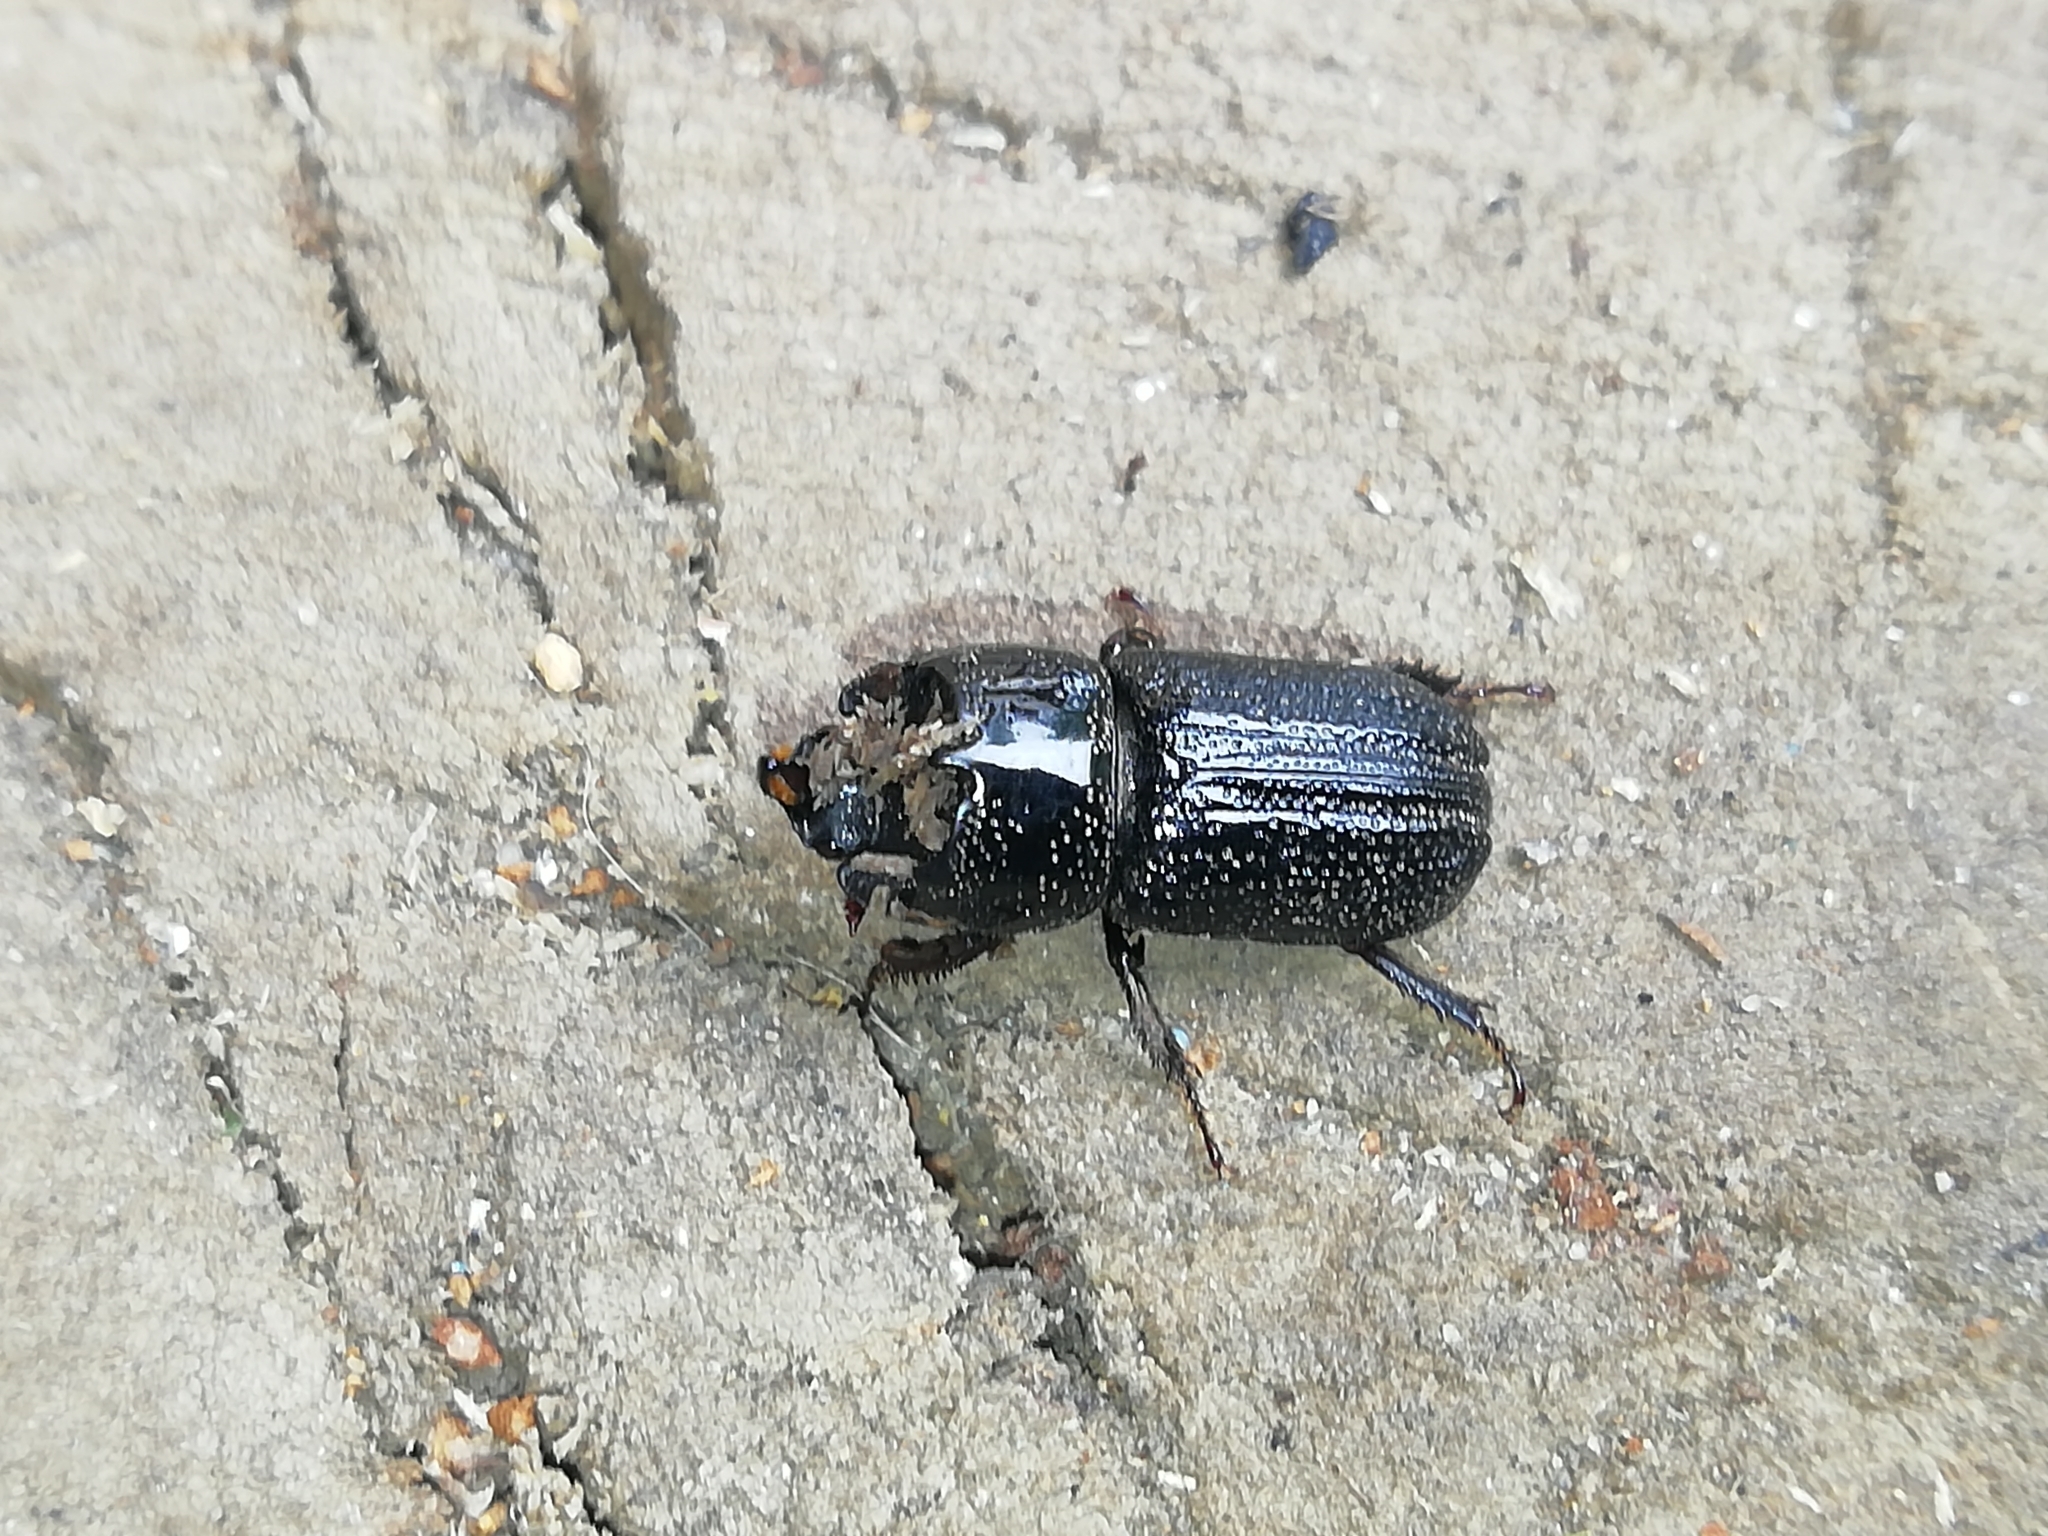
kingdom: Animalia
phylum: Arthropoda
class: Insecta
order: Coleoptera
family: Lucanidae
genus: Sinodendron
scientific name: Sinodendron cylindricum
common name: Rhinoceros beetle
